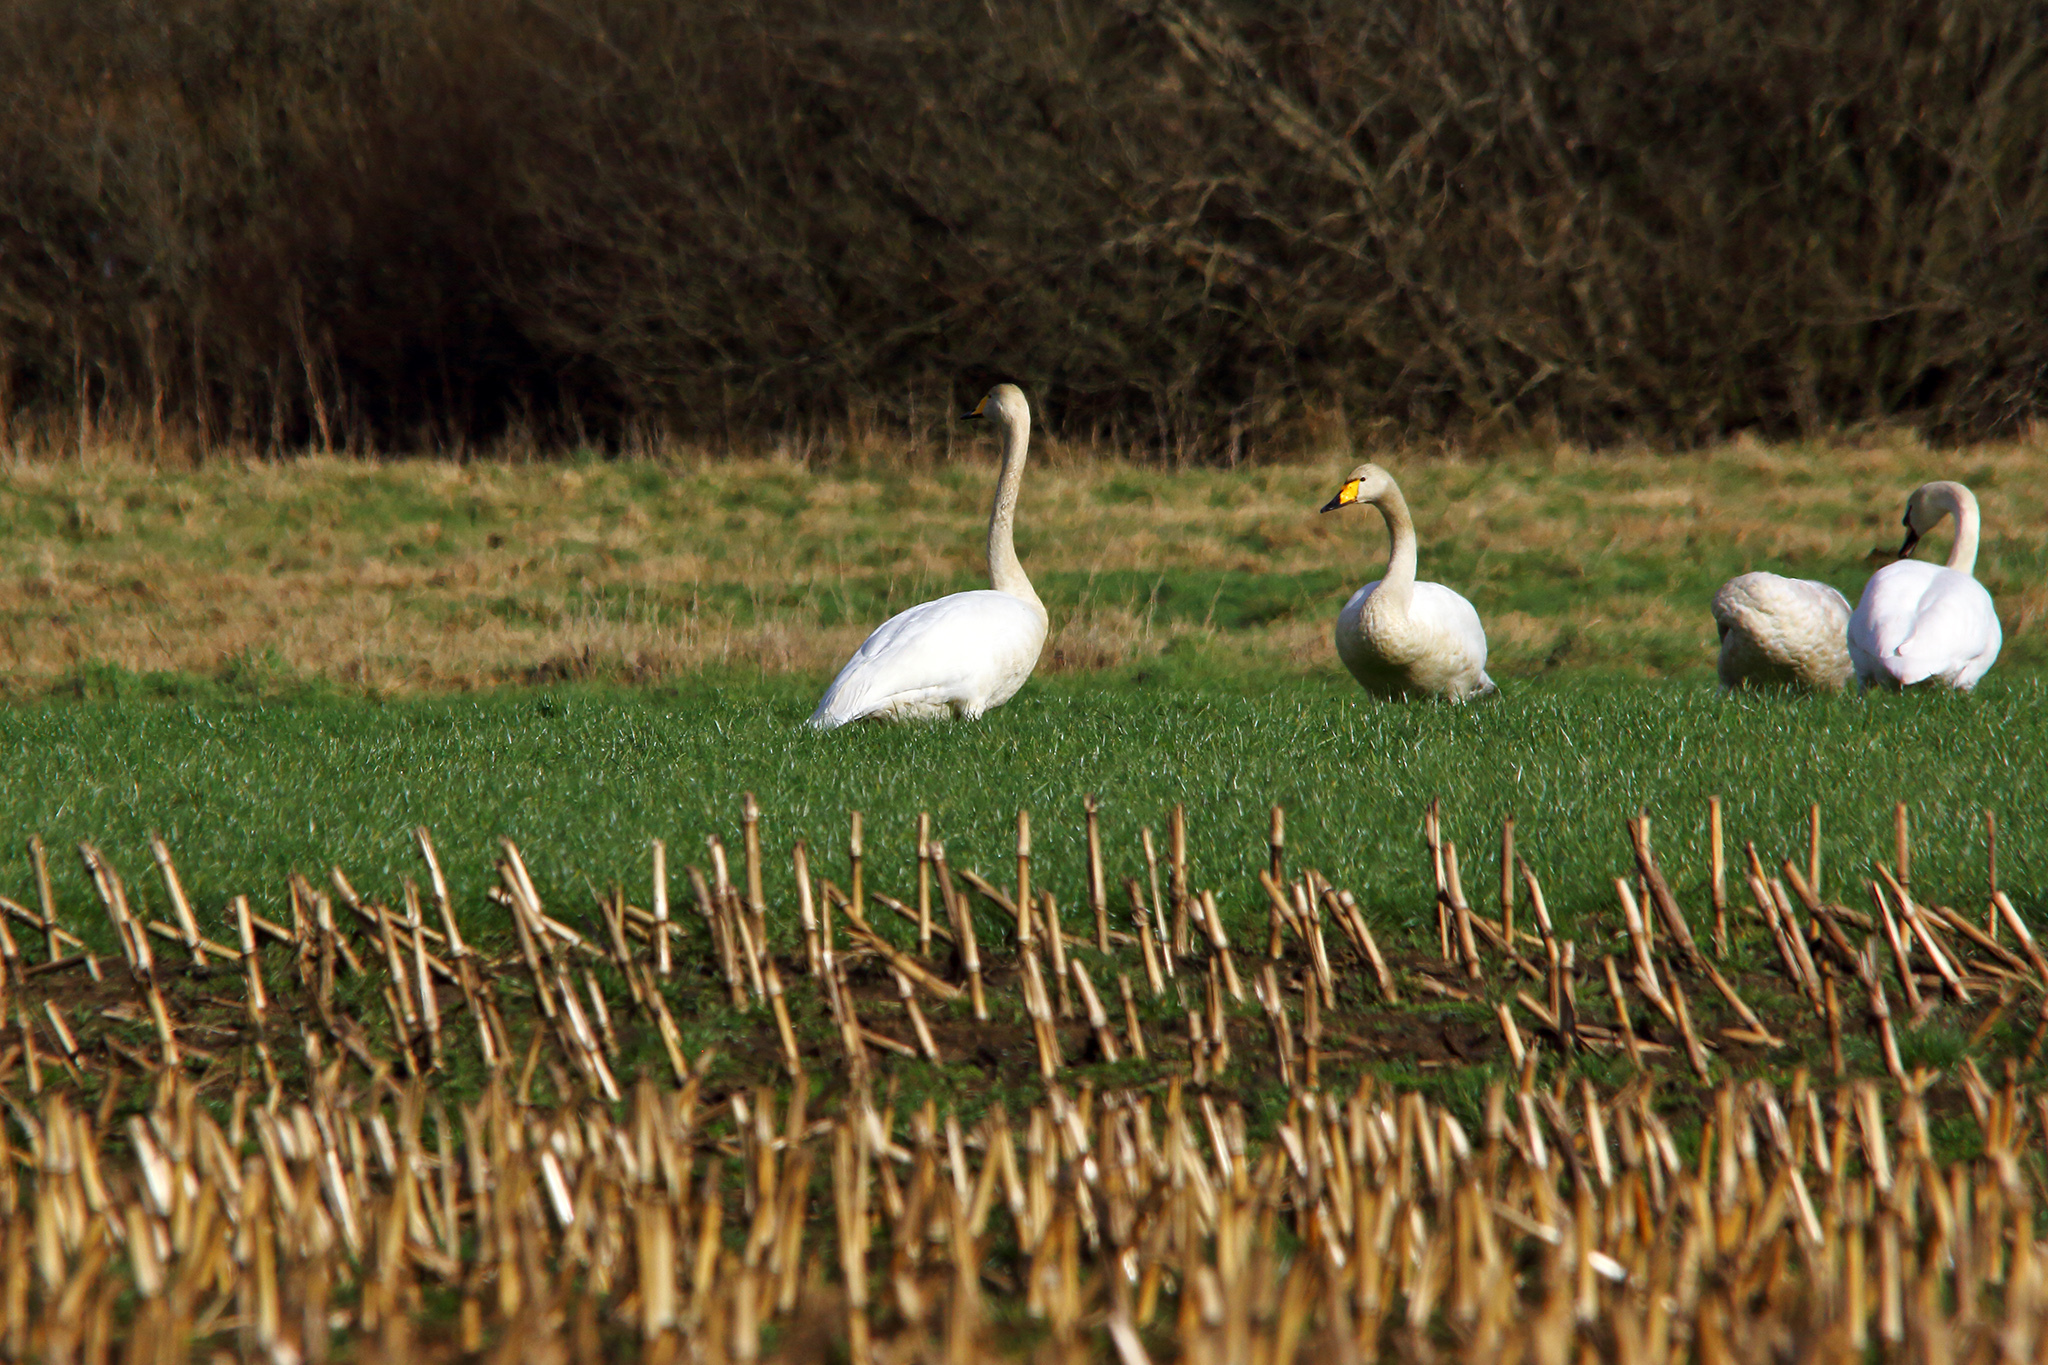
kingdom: Animalia
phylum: Chordata
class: Aves
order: Anseriformes
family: Anatidae
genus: Cygnus
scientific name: Cygnus cygnus
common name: Whooper swan
